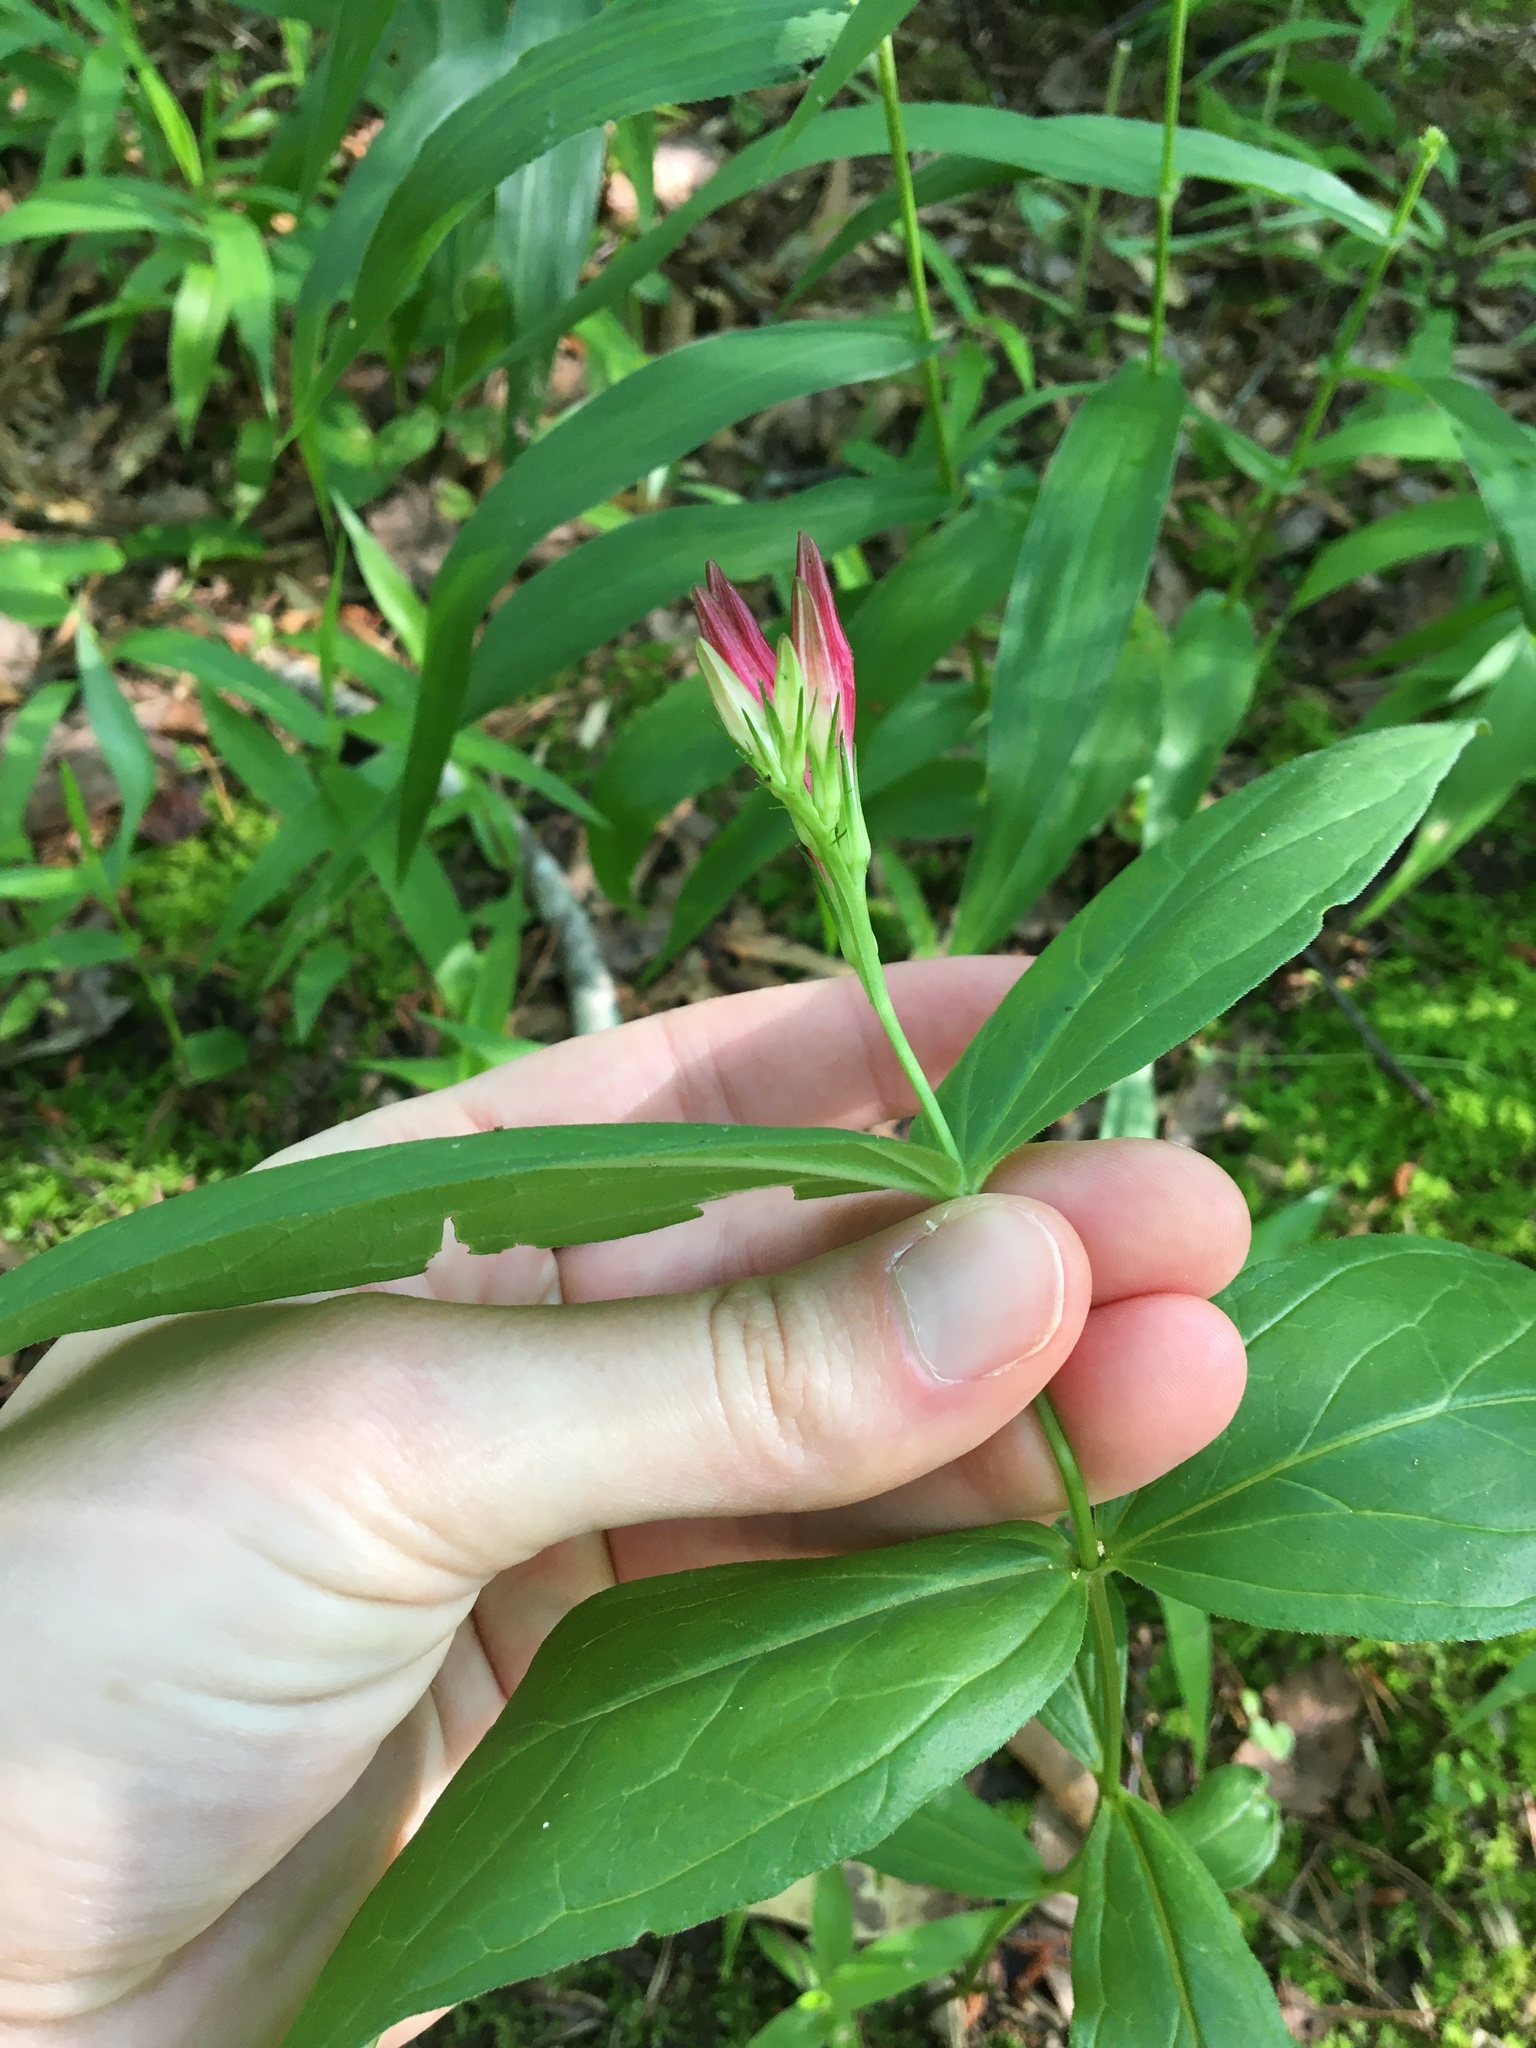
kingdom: Plantae
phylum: Tracheophyta
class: Magnoliopsida
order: Gentianales
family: Loganiaceae
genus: Spigelia
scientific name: Spigelia marilandica
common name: Indian-pink
